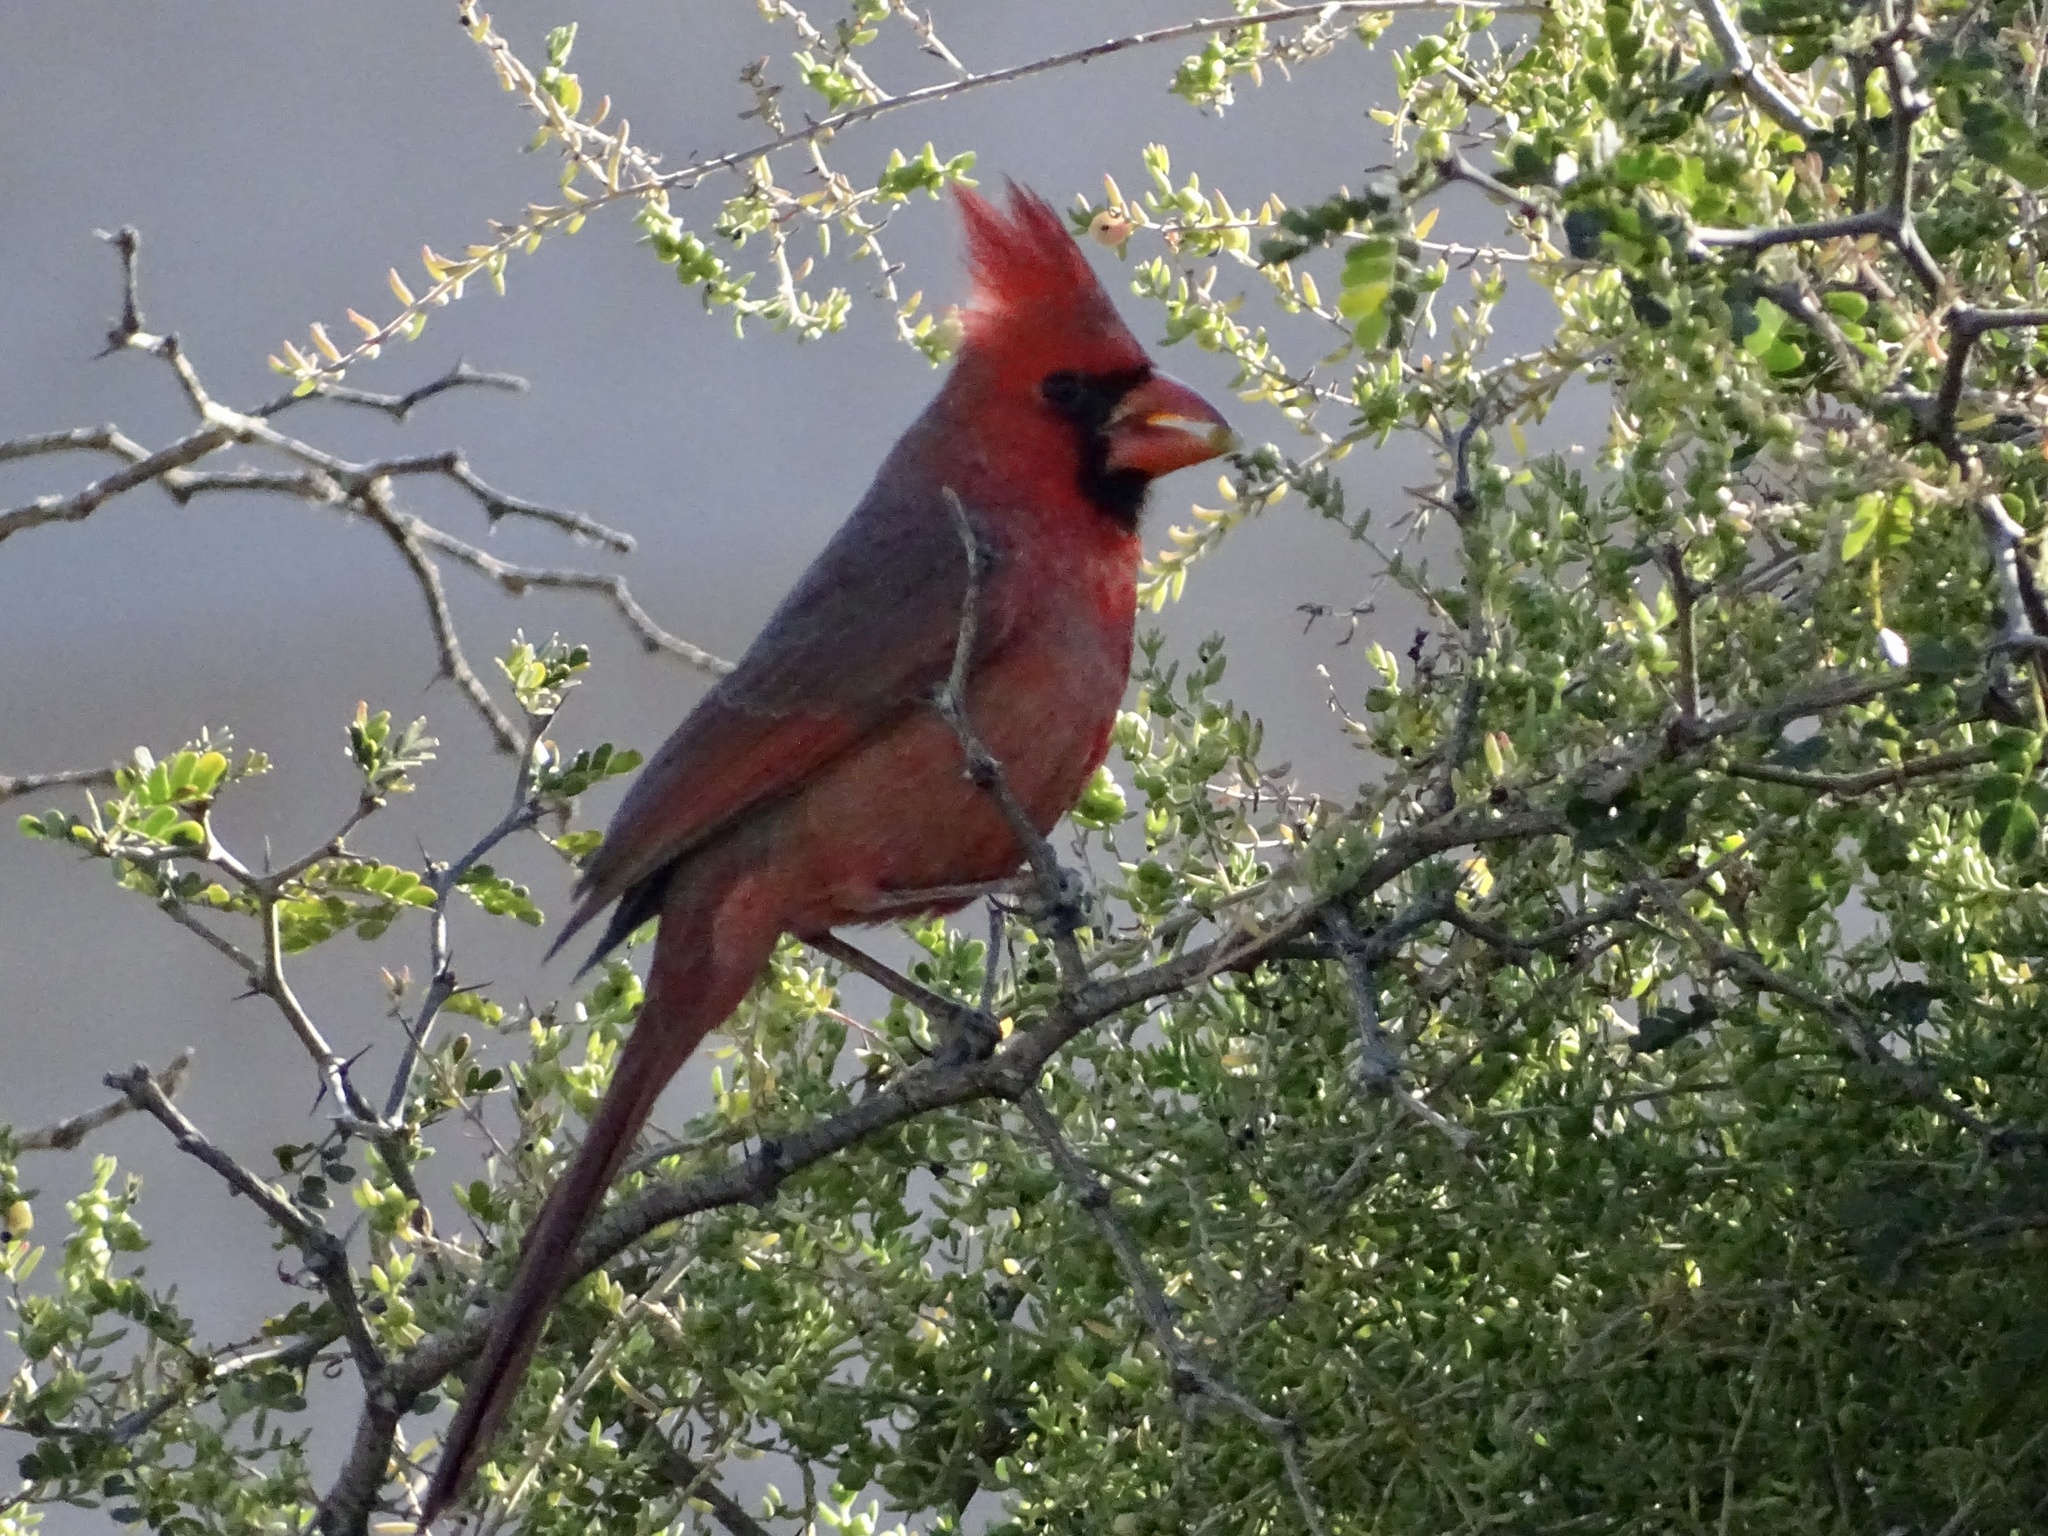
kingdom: Animalia
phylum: Chordata
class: Aves
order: Passeriformes
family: Cardinalidae
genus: Cardinalis
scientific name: Cardinalis cardinalis
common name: Northern cardinal
